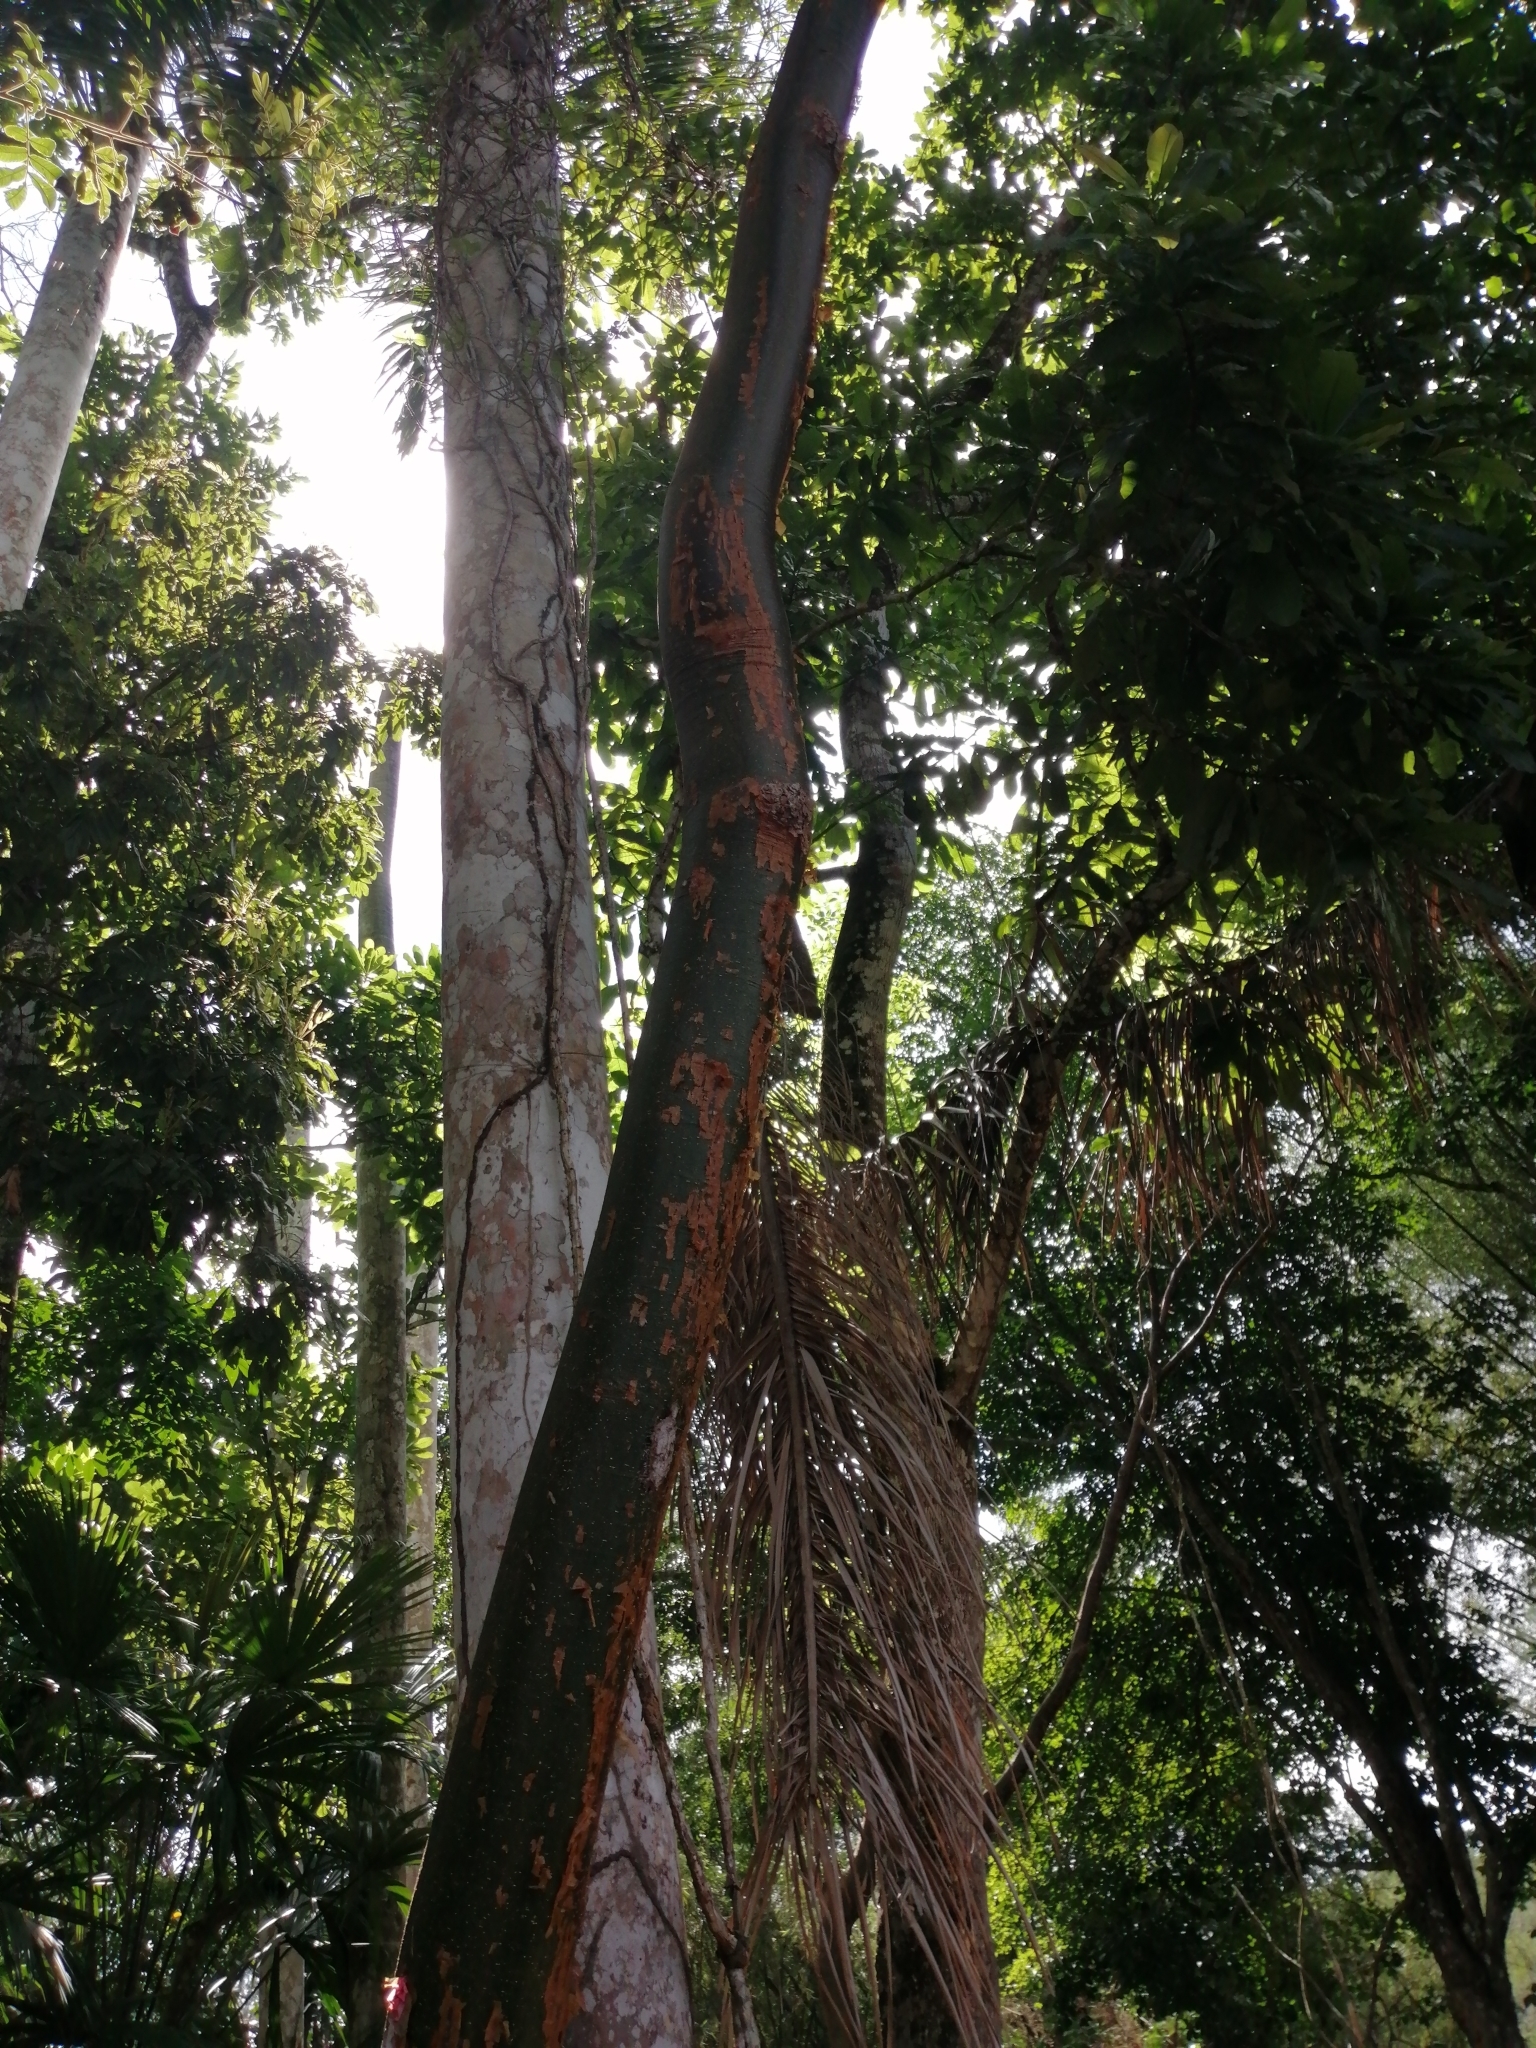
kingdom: Plantae
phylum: Tracheophyta
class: Magnoliopsida
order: Sapindales
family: Burseraceae
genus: Bursera
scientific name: Bursera simaruba
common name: Turpentine tree
